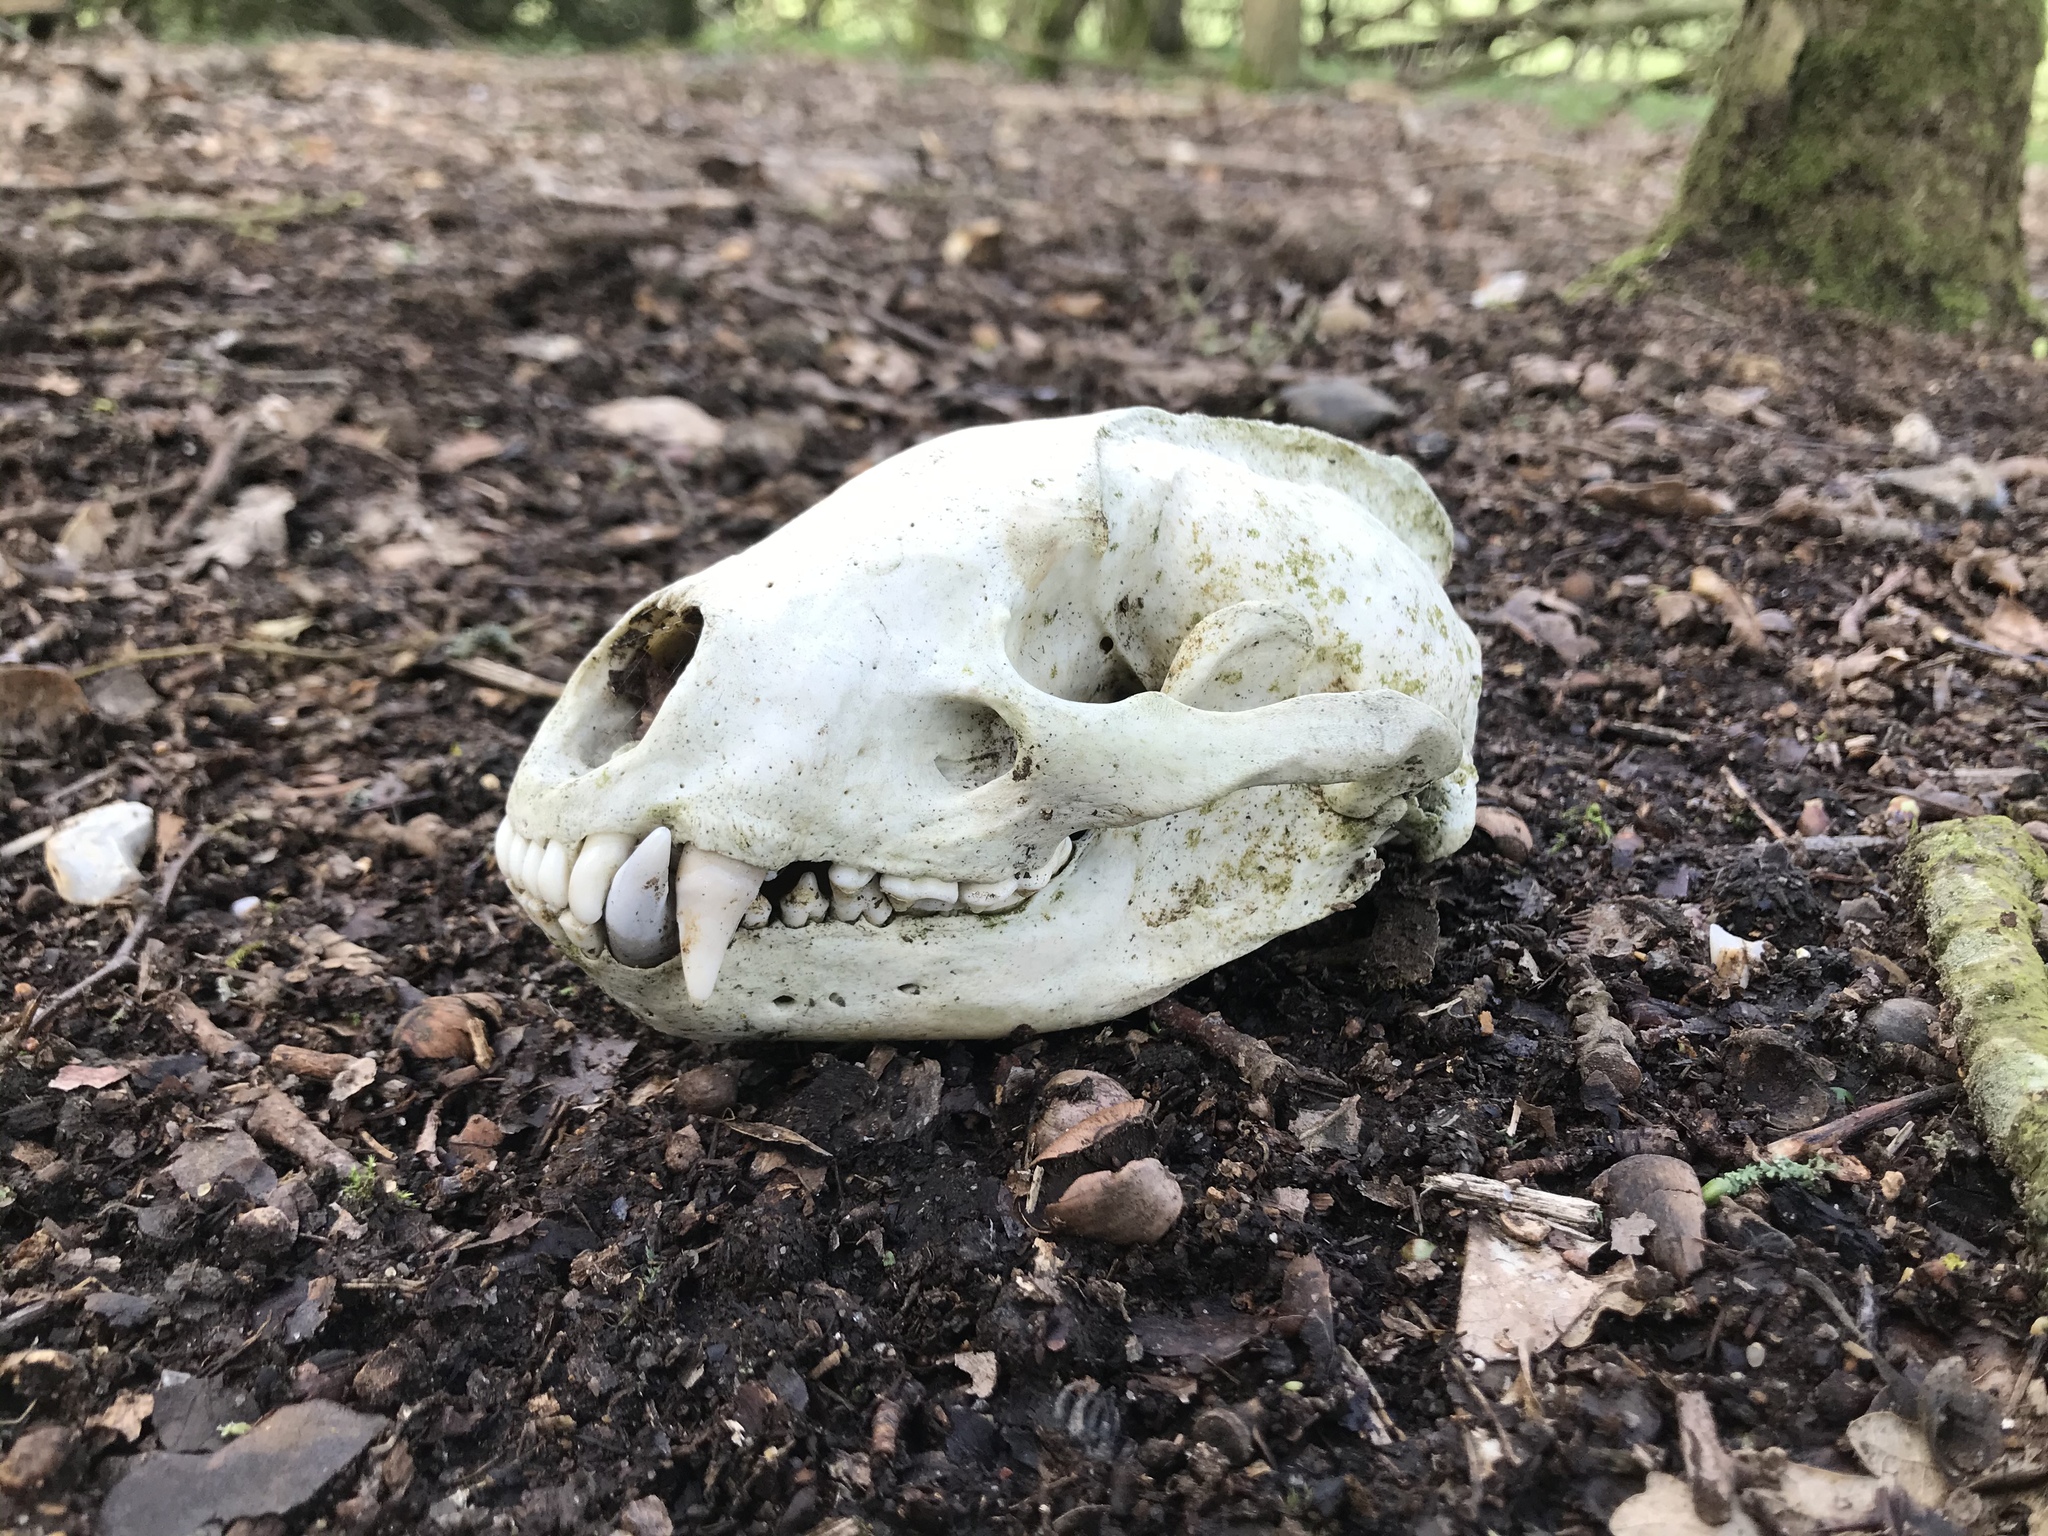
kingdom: Animalia
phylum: Chordata
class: Mammalia
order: Carnivora
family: Mustelidae
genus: Meles
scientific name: Meles meles
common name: Eurasian badger
